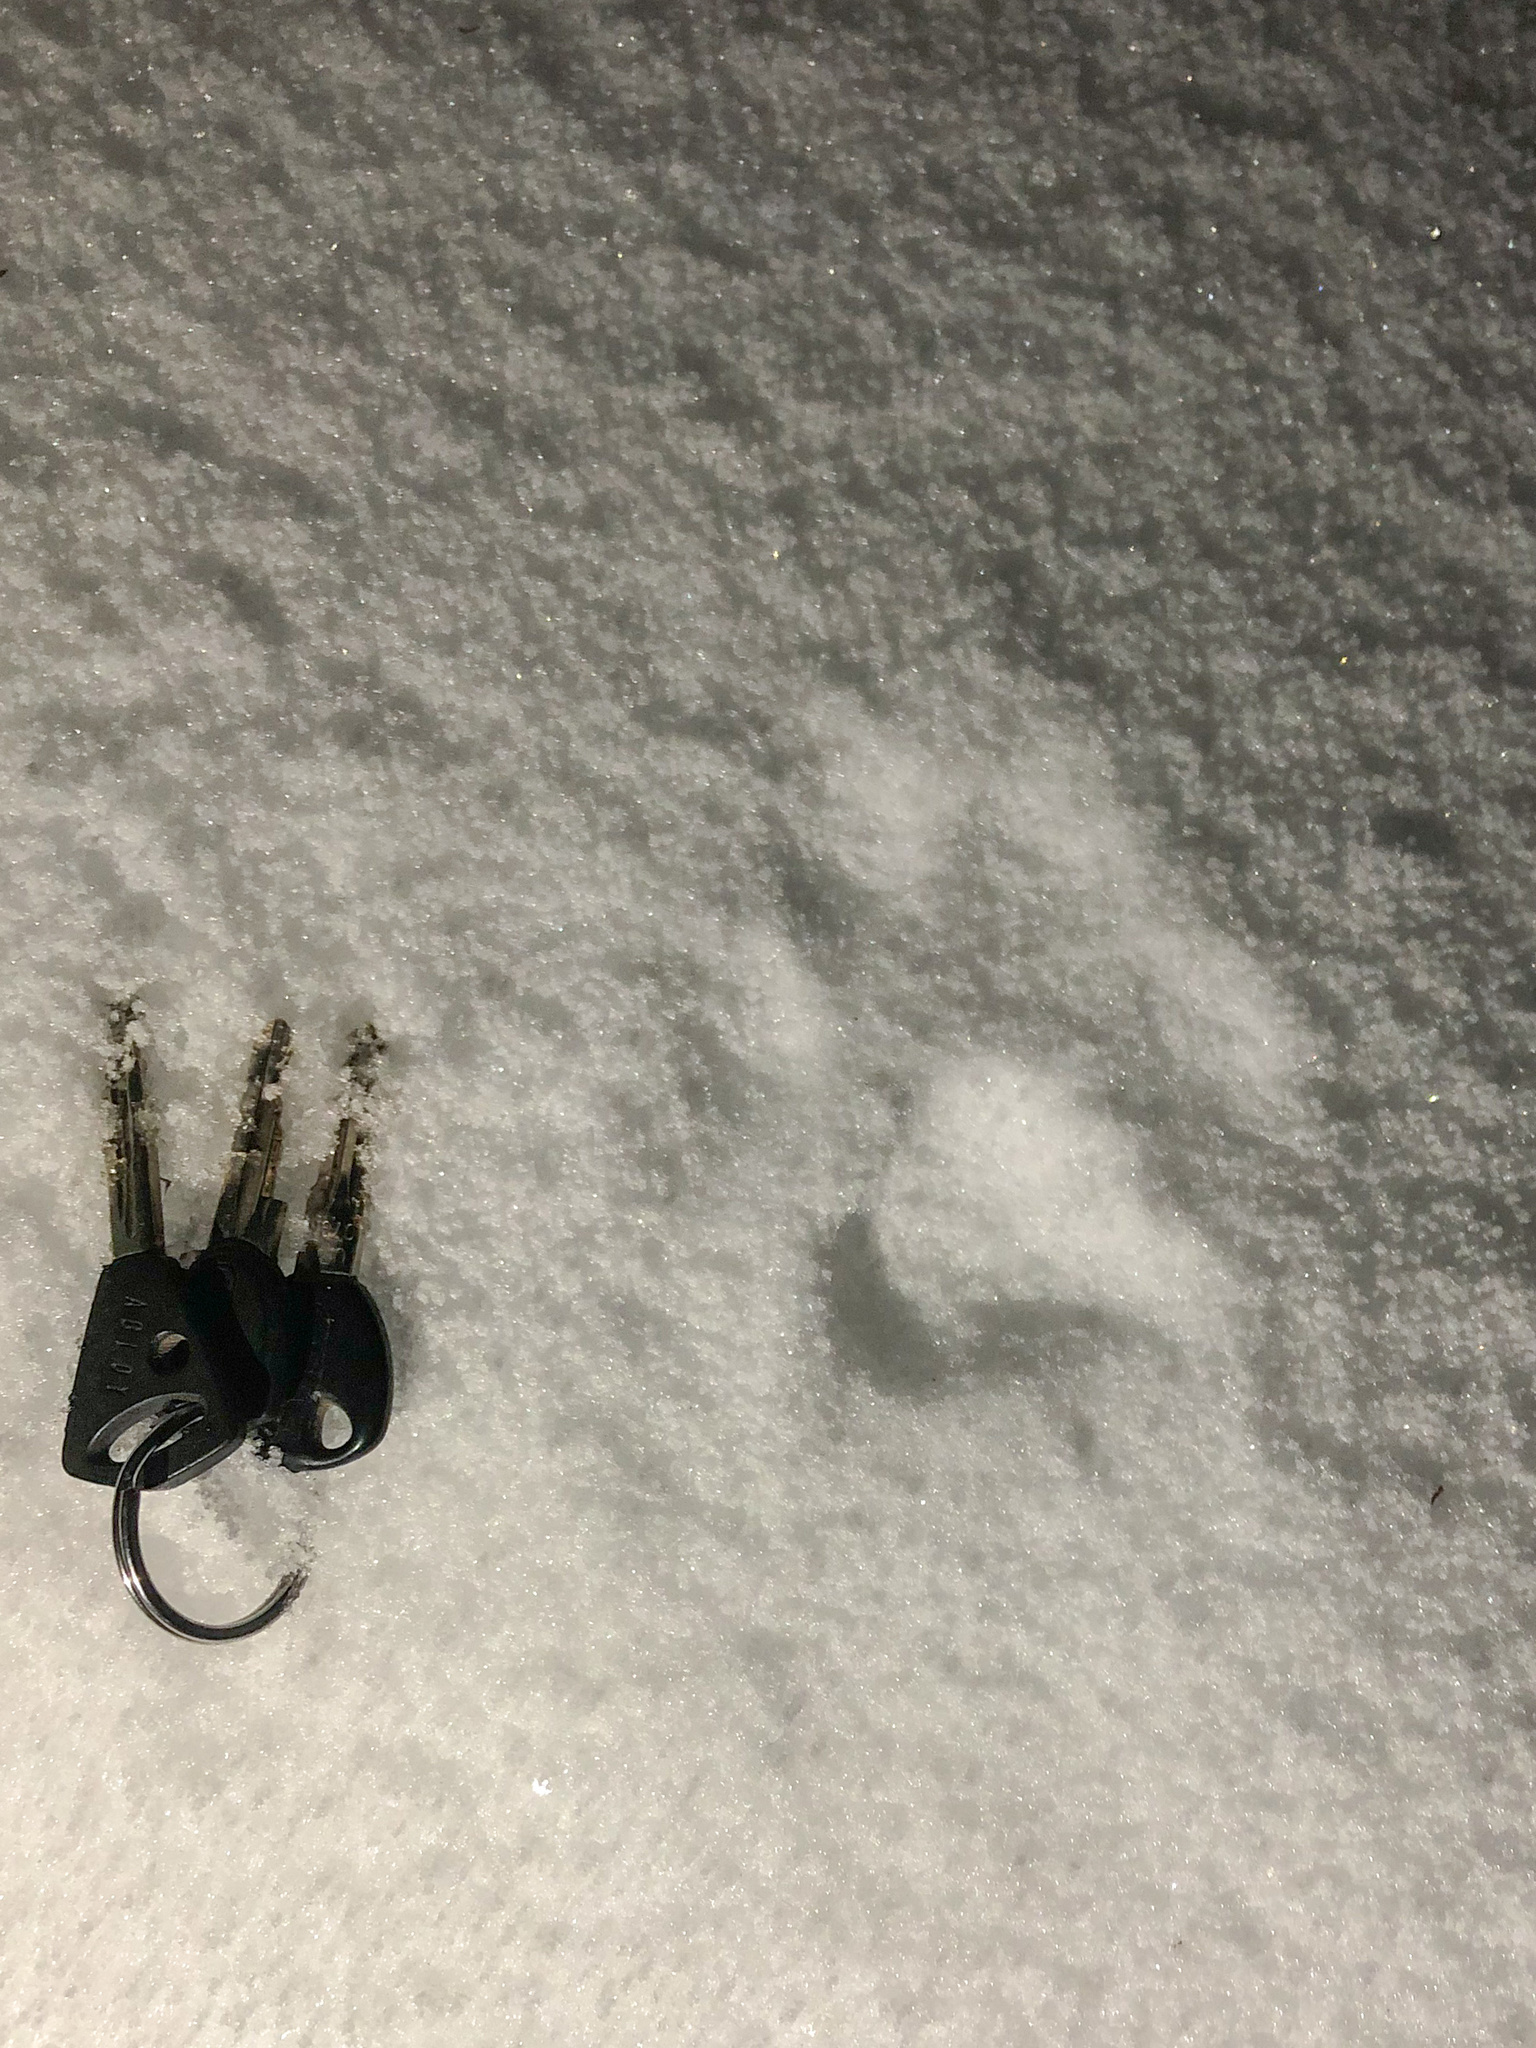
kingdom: Animalia
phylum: Chordata
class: Mammalia
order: Carnivora
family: Felidae
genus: Lynx
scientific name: Lynx lynx
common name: Eurasian lynx
